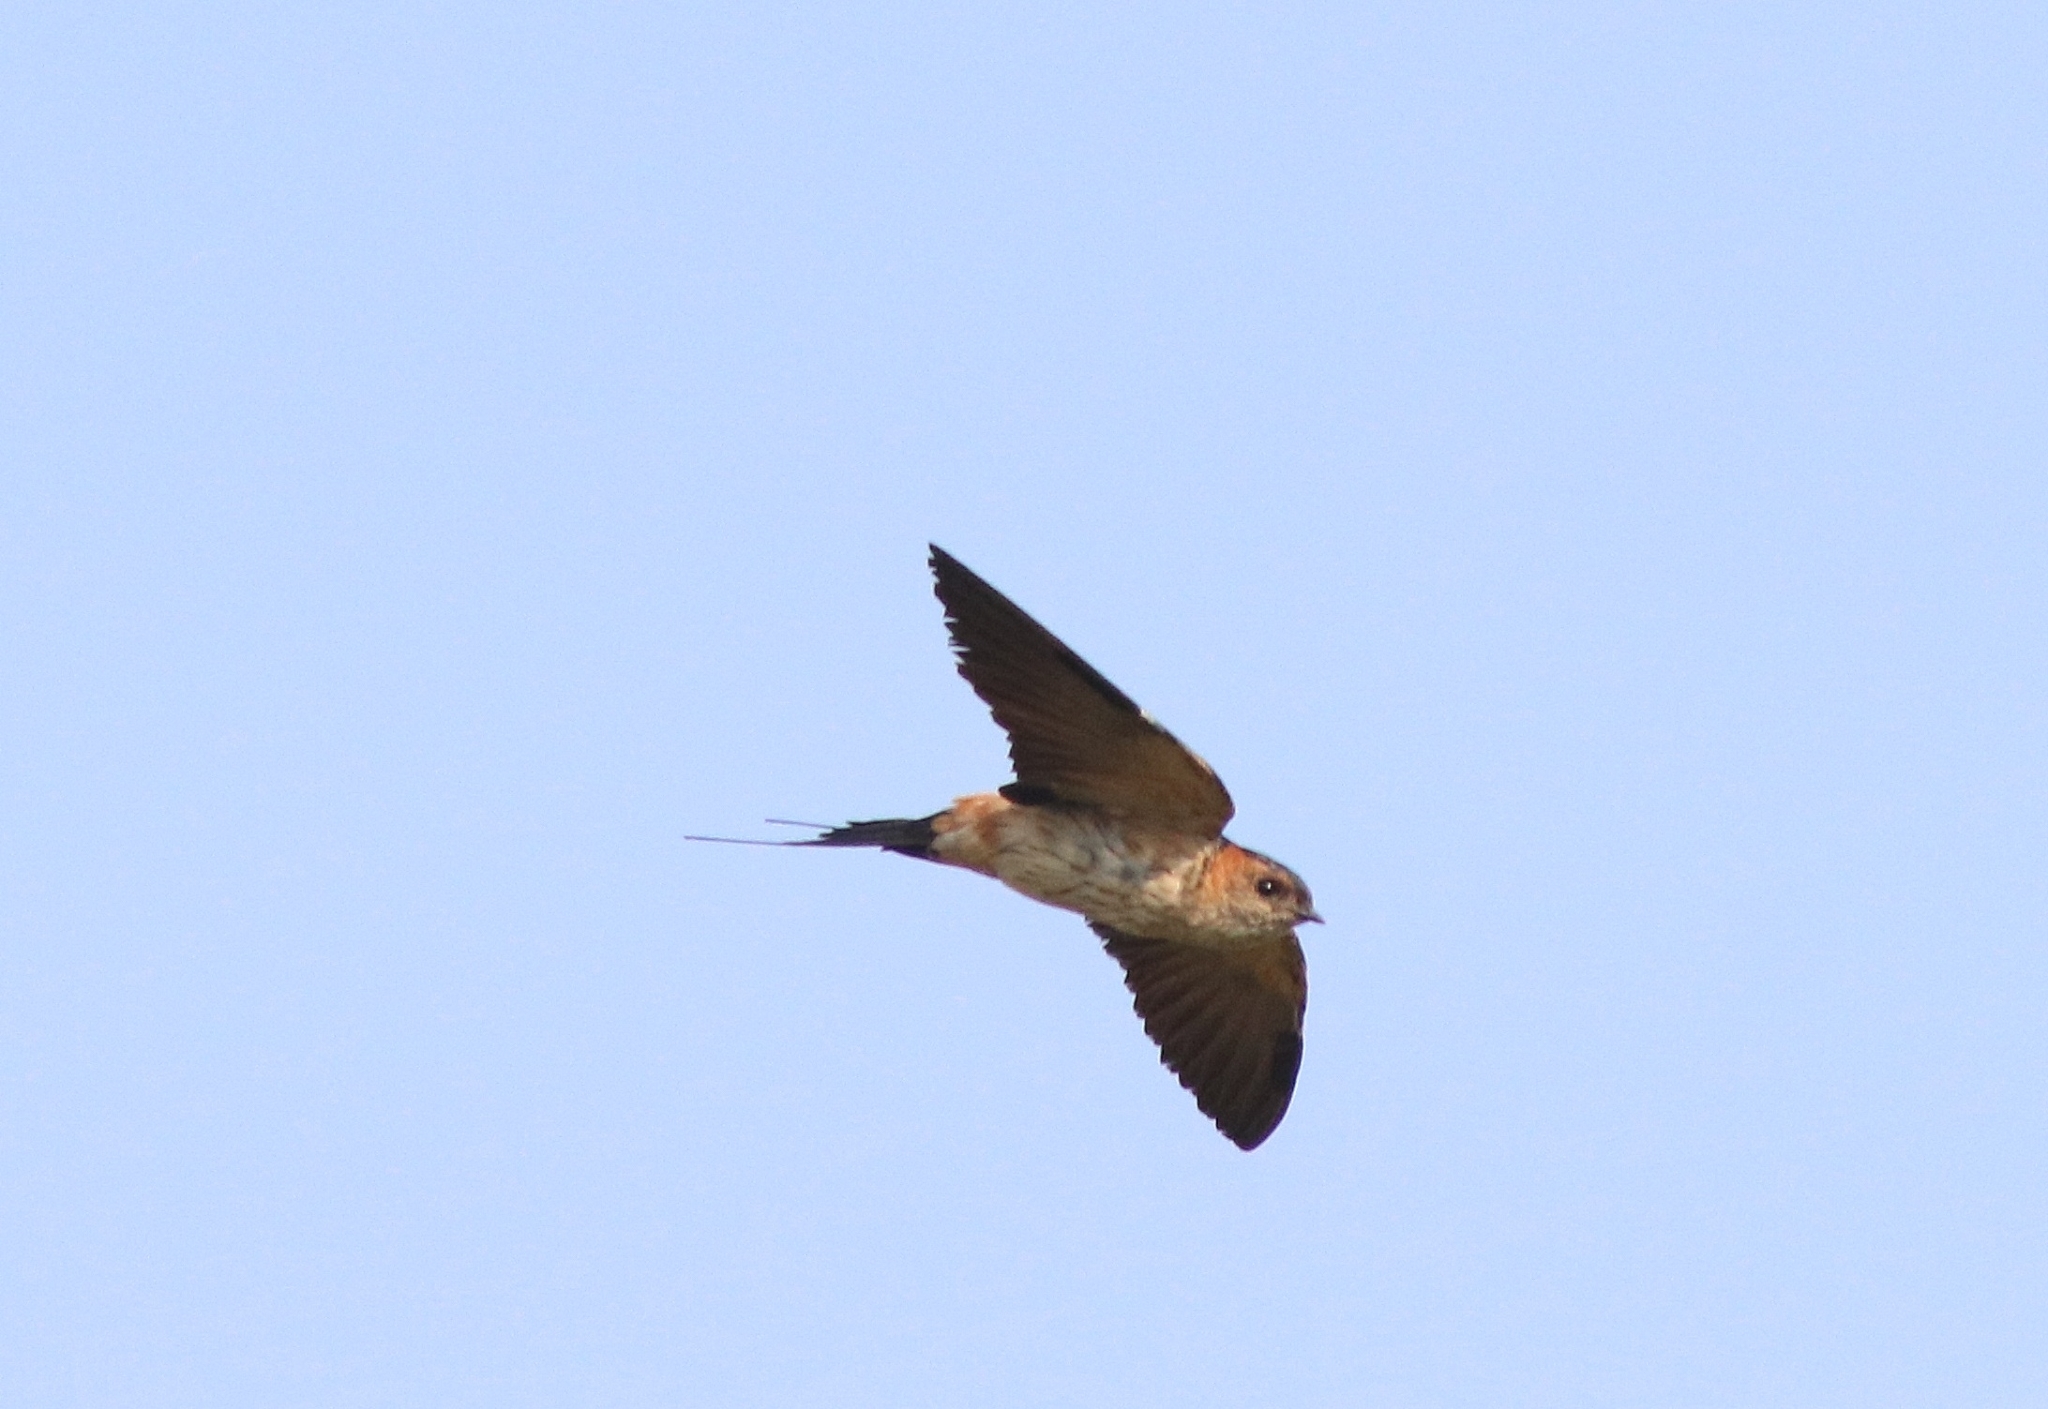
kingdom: Animalia
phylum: Chordata
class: Aves
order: Passeriformes
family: Hirundinidae
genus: Cecropis
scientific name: Cecropis daurica
